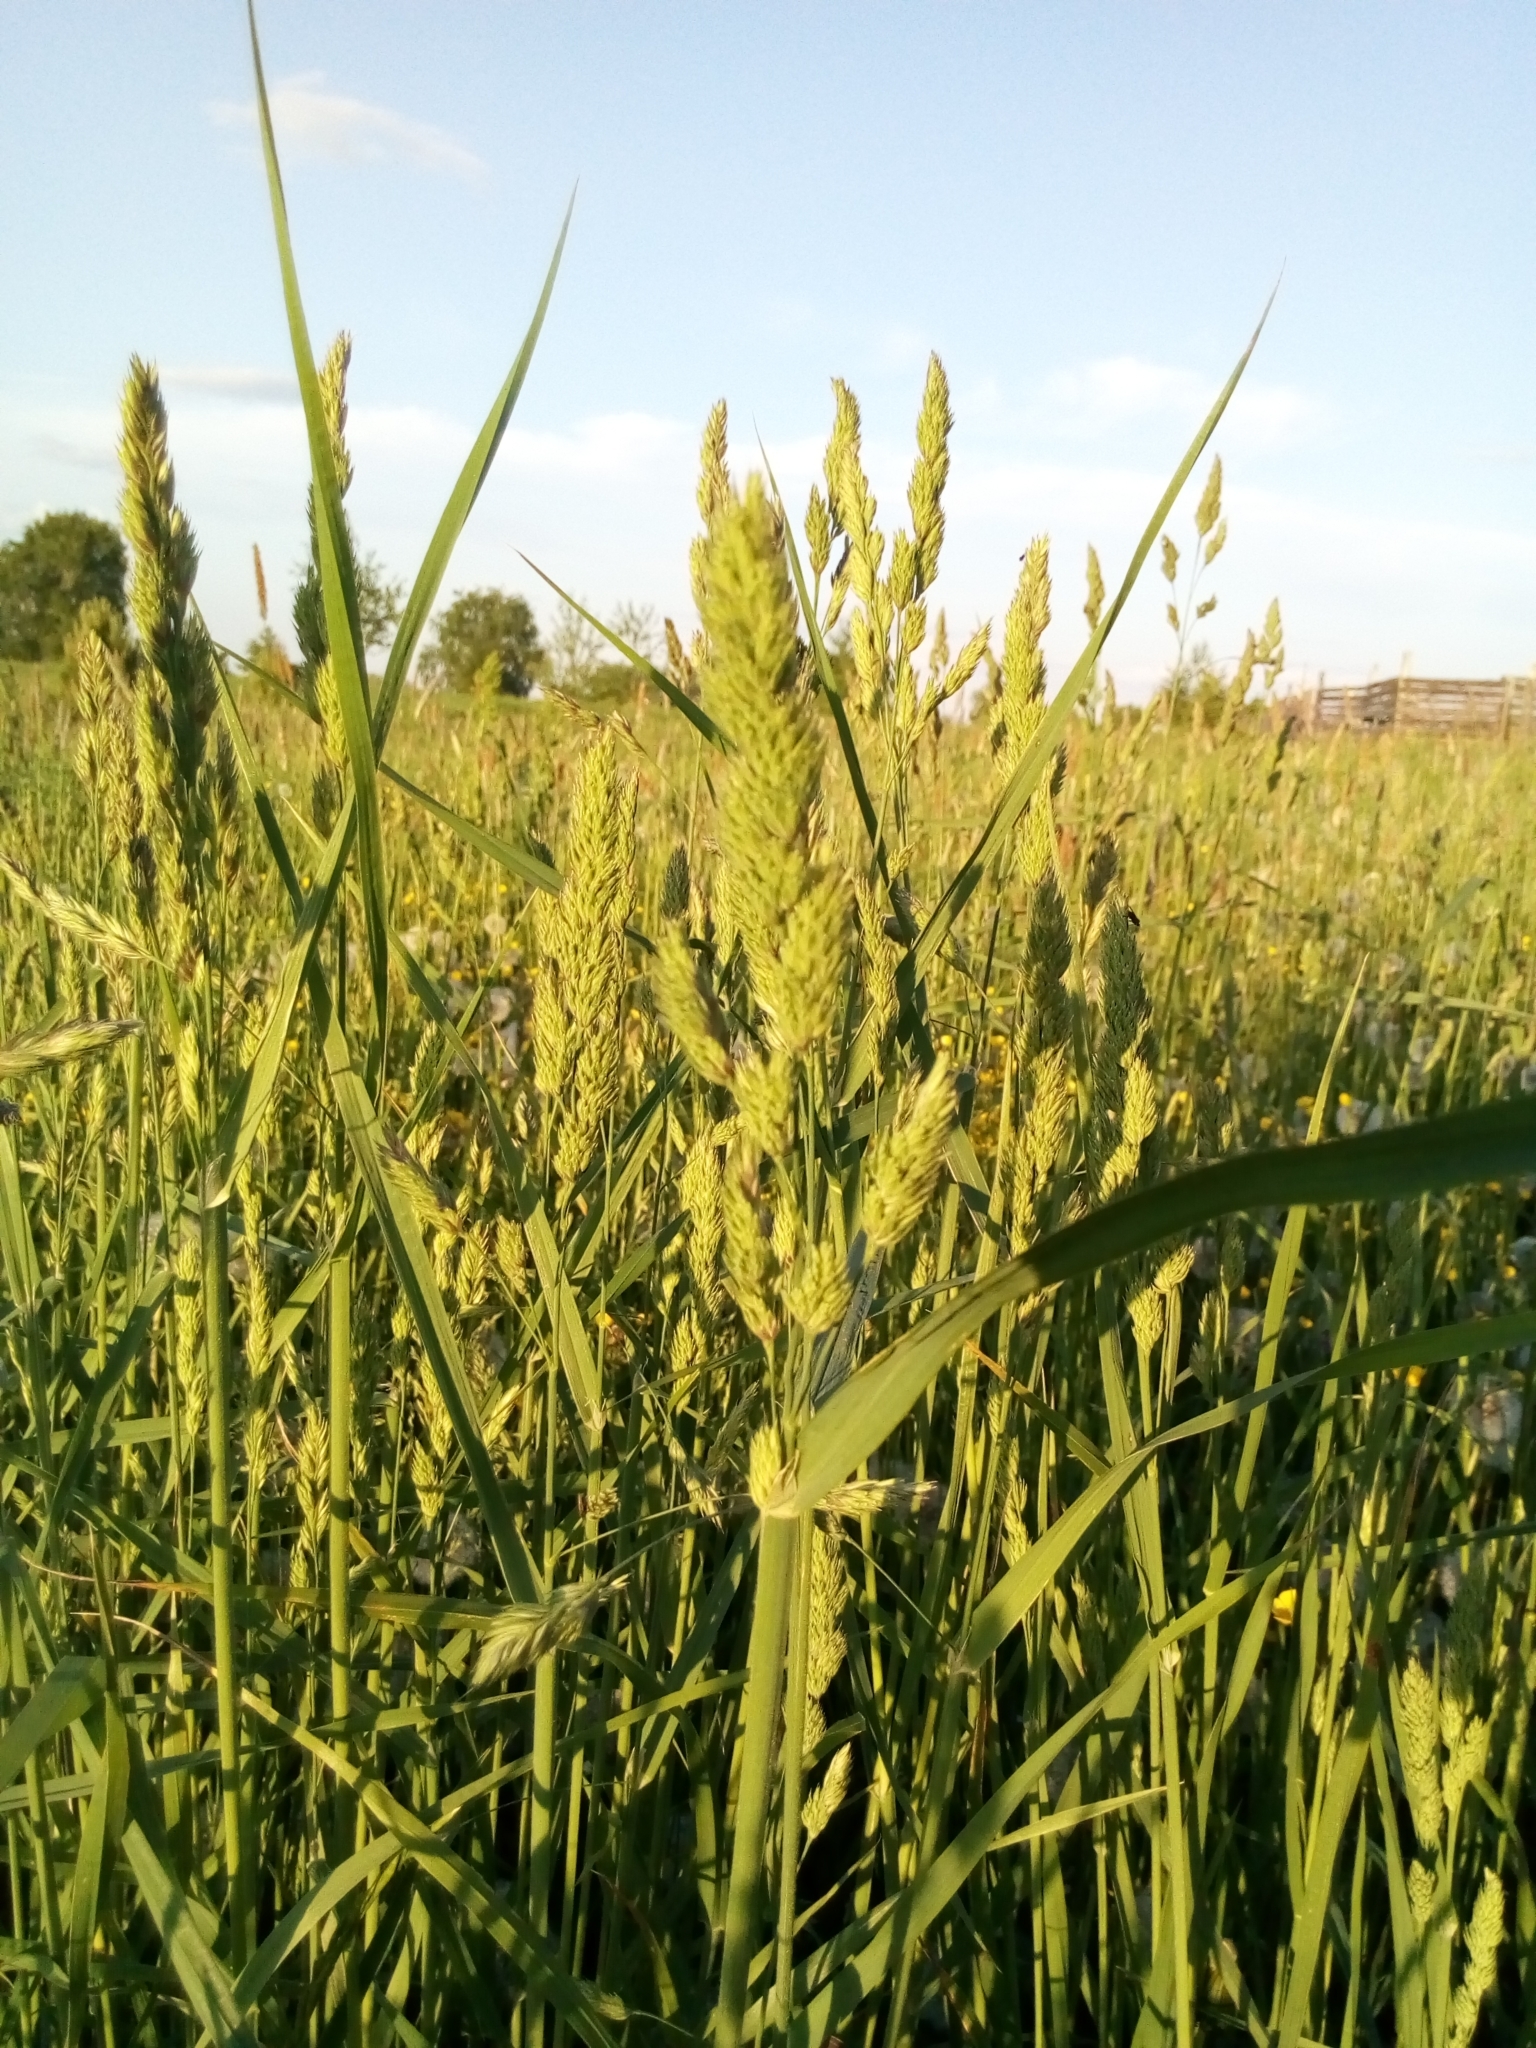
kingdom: Plantae
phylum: Tracheophyta
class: Liliopsida
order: Poales
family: Poaceae
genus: Dactylis
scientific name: Dactylis glomerata
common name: Orchardgrass
